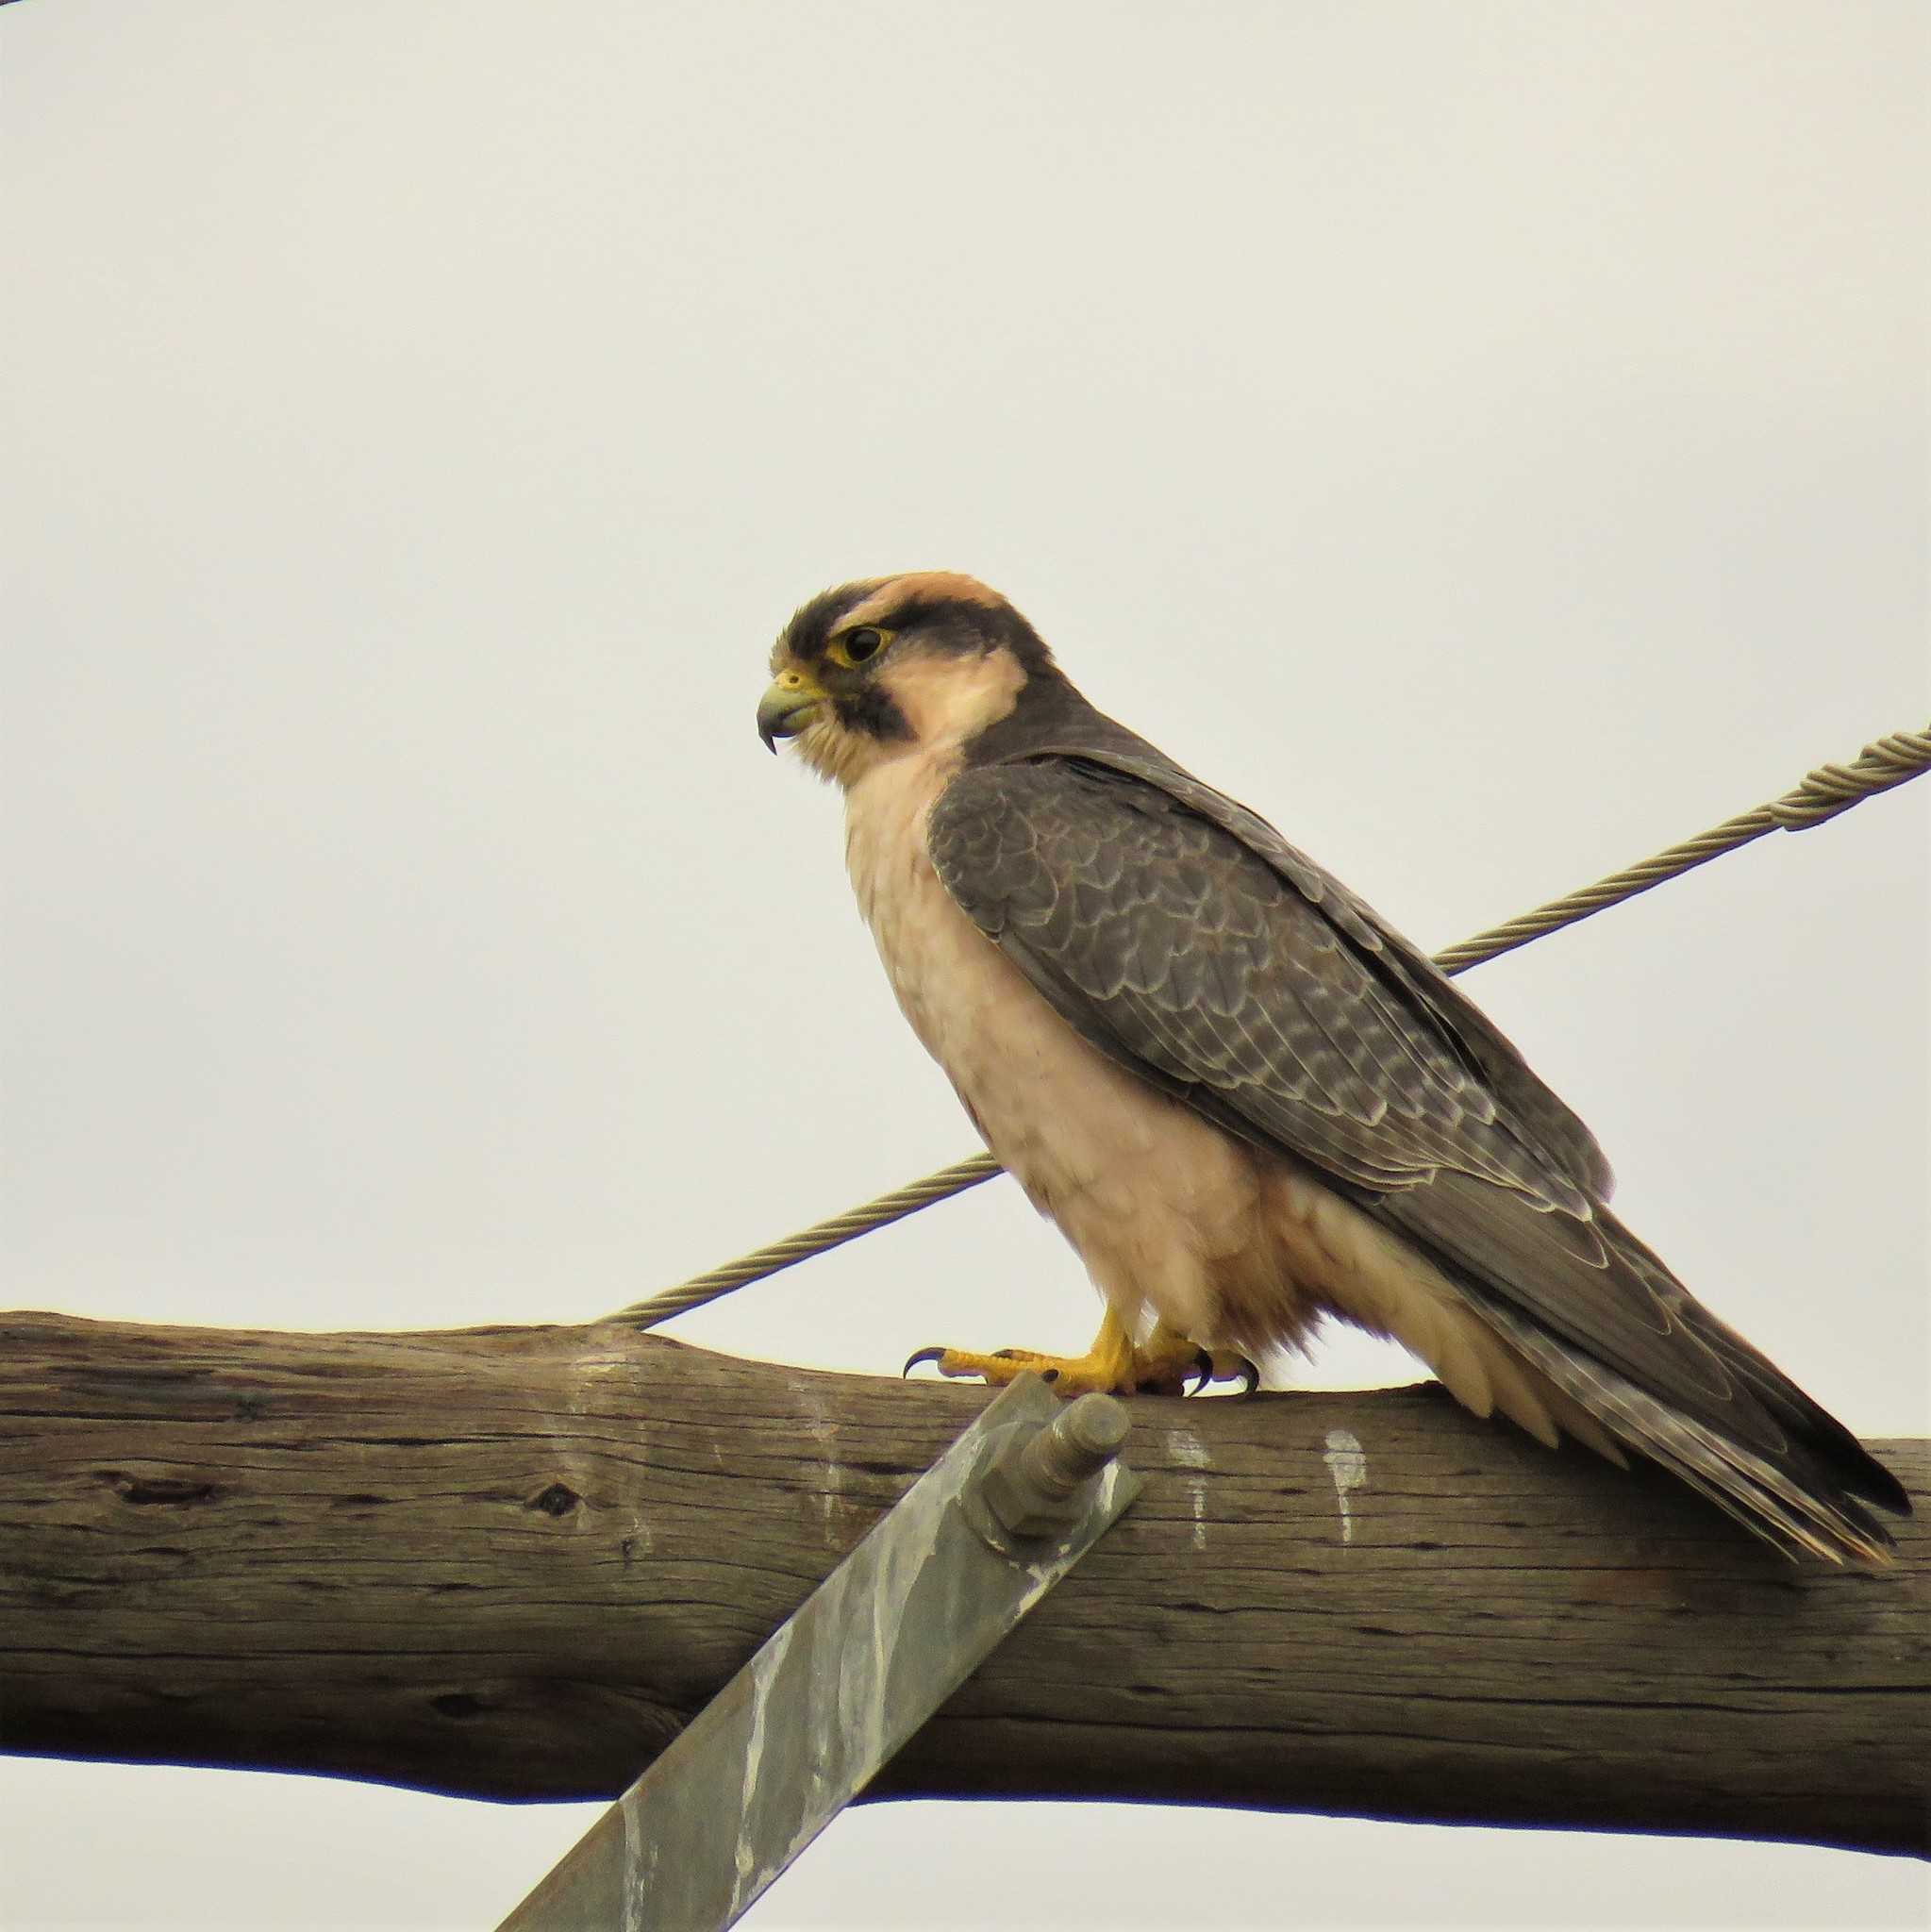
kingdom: Animalia
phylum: Chordata
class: Aves
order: Falconiformes
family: Falconidae
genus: Falco
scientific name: Falco biarmicus
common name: Lanner falcon
